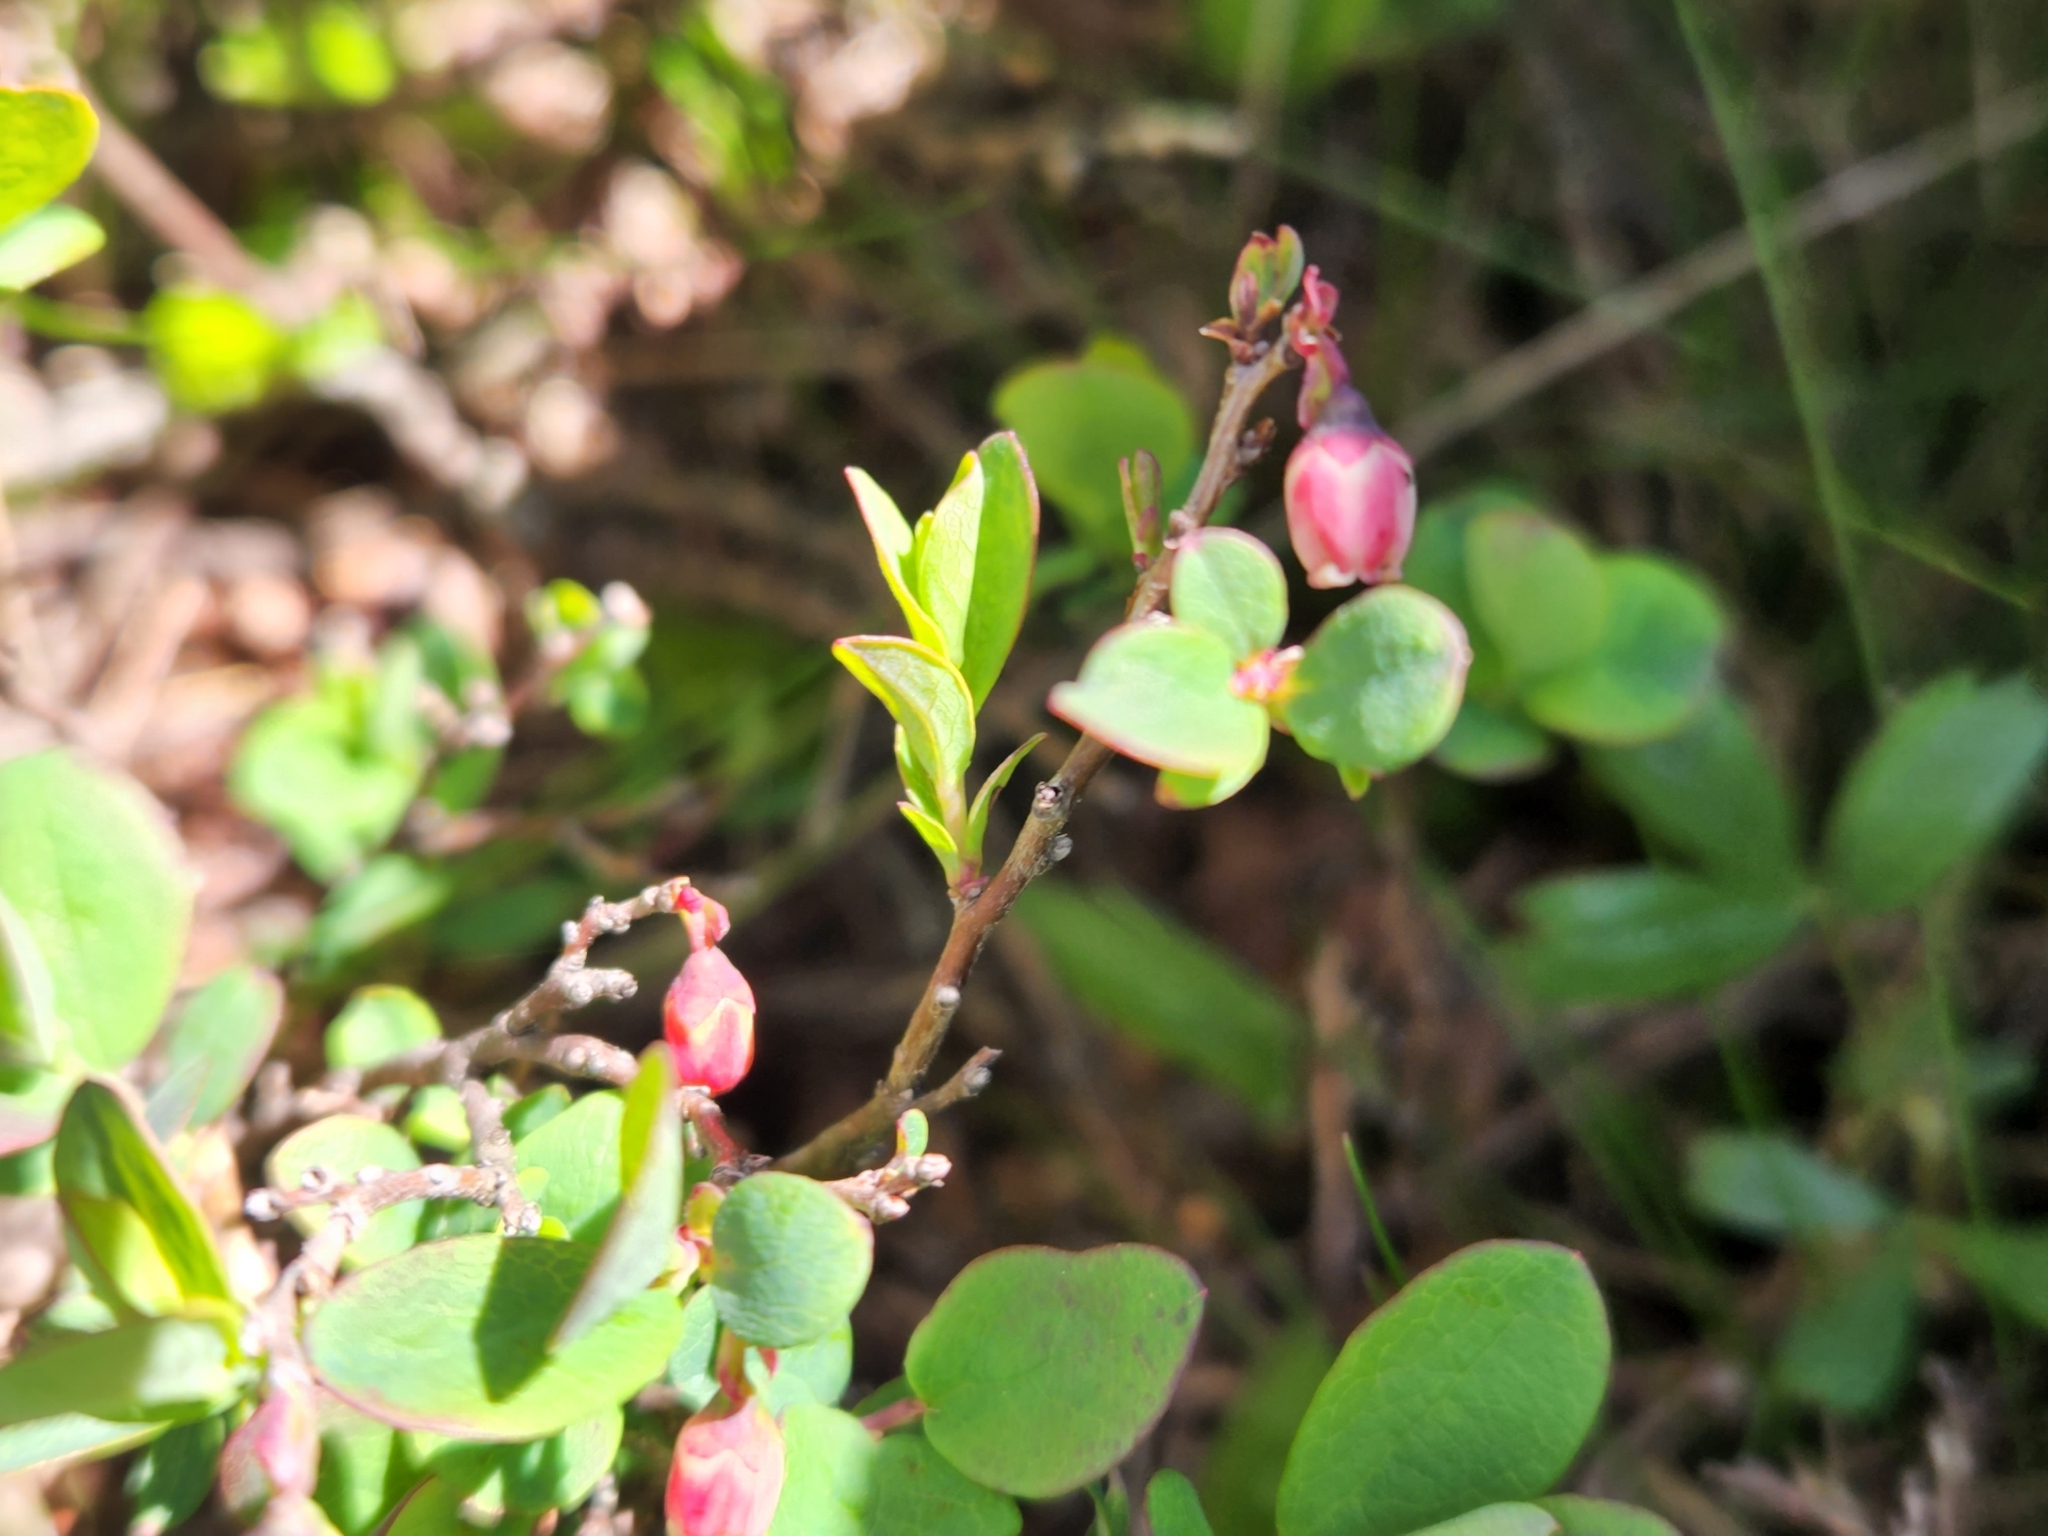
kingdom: Plantae
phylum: Tracheophyta
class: Magnoliopsida
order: Ericales
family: Ericaceae
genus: Vaccinium
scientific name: Vaccinium uliginosum
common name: Bog bilberry
